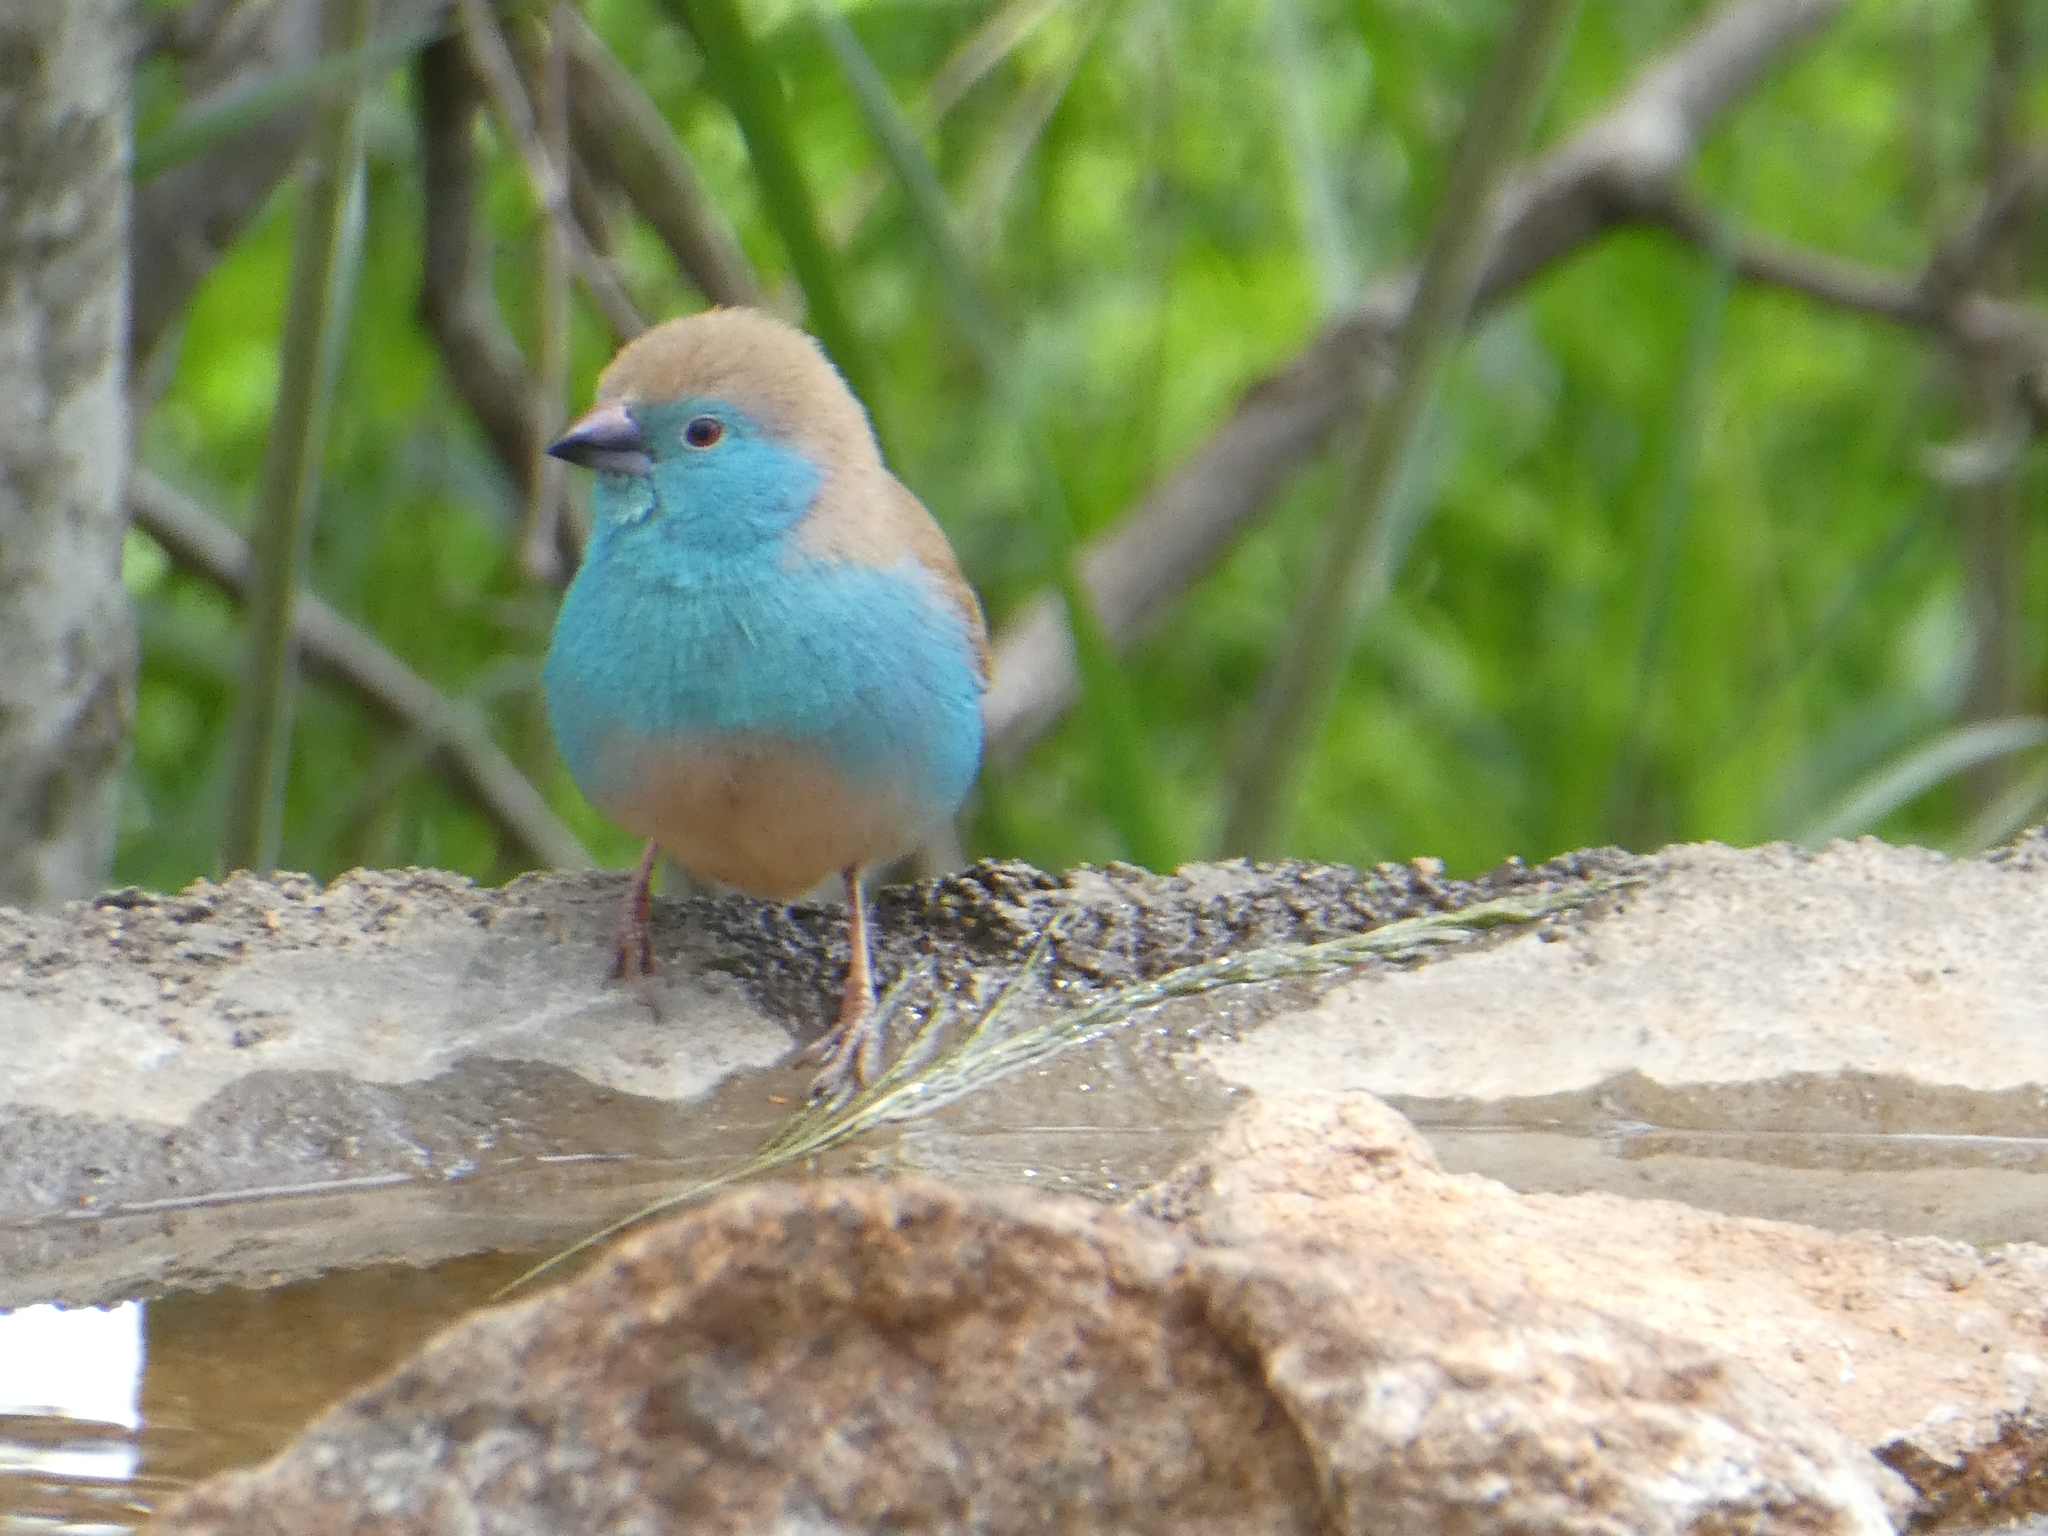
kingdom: Animalia
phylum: Chordata
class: Aves
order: Passeriformes
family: Estrildidae
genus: Uraeginthus
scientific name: Uraeginthus angolensis
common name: Blue waxbill
